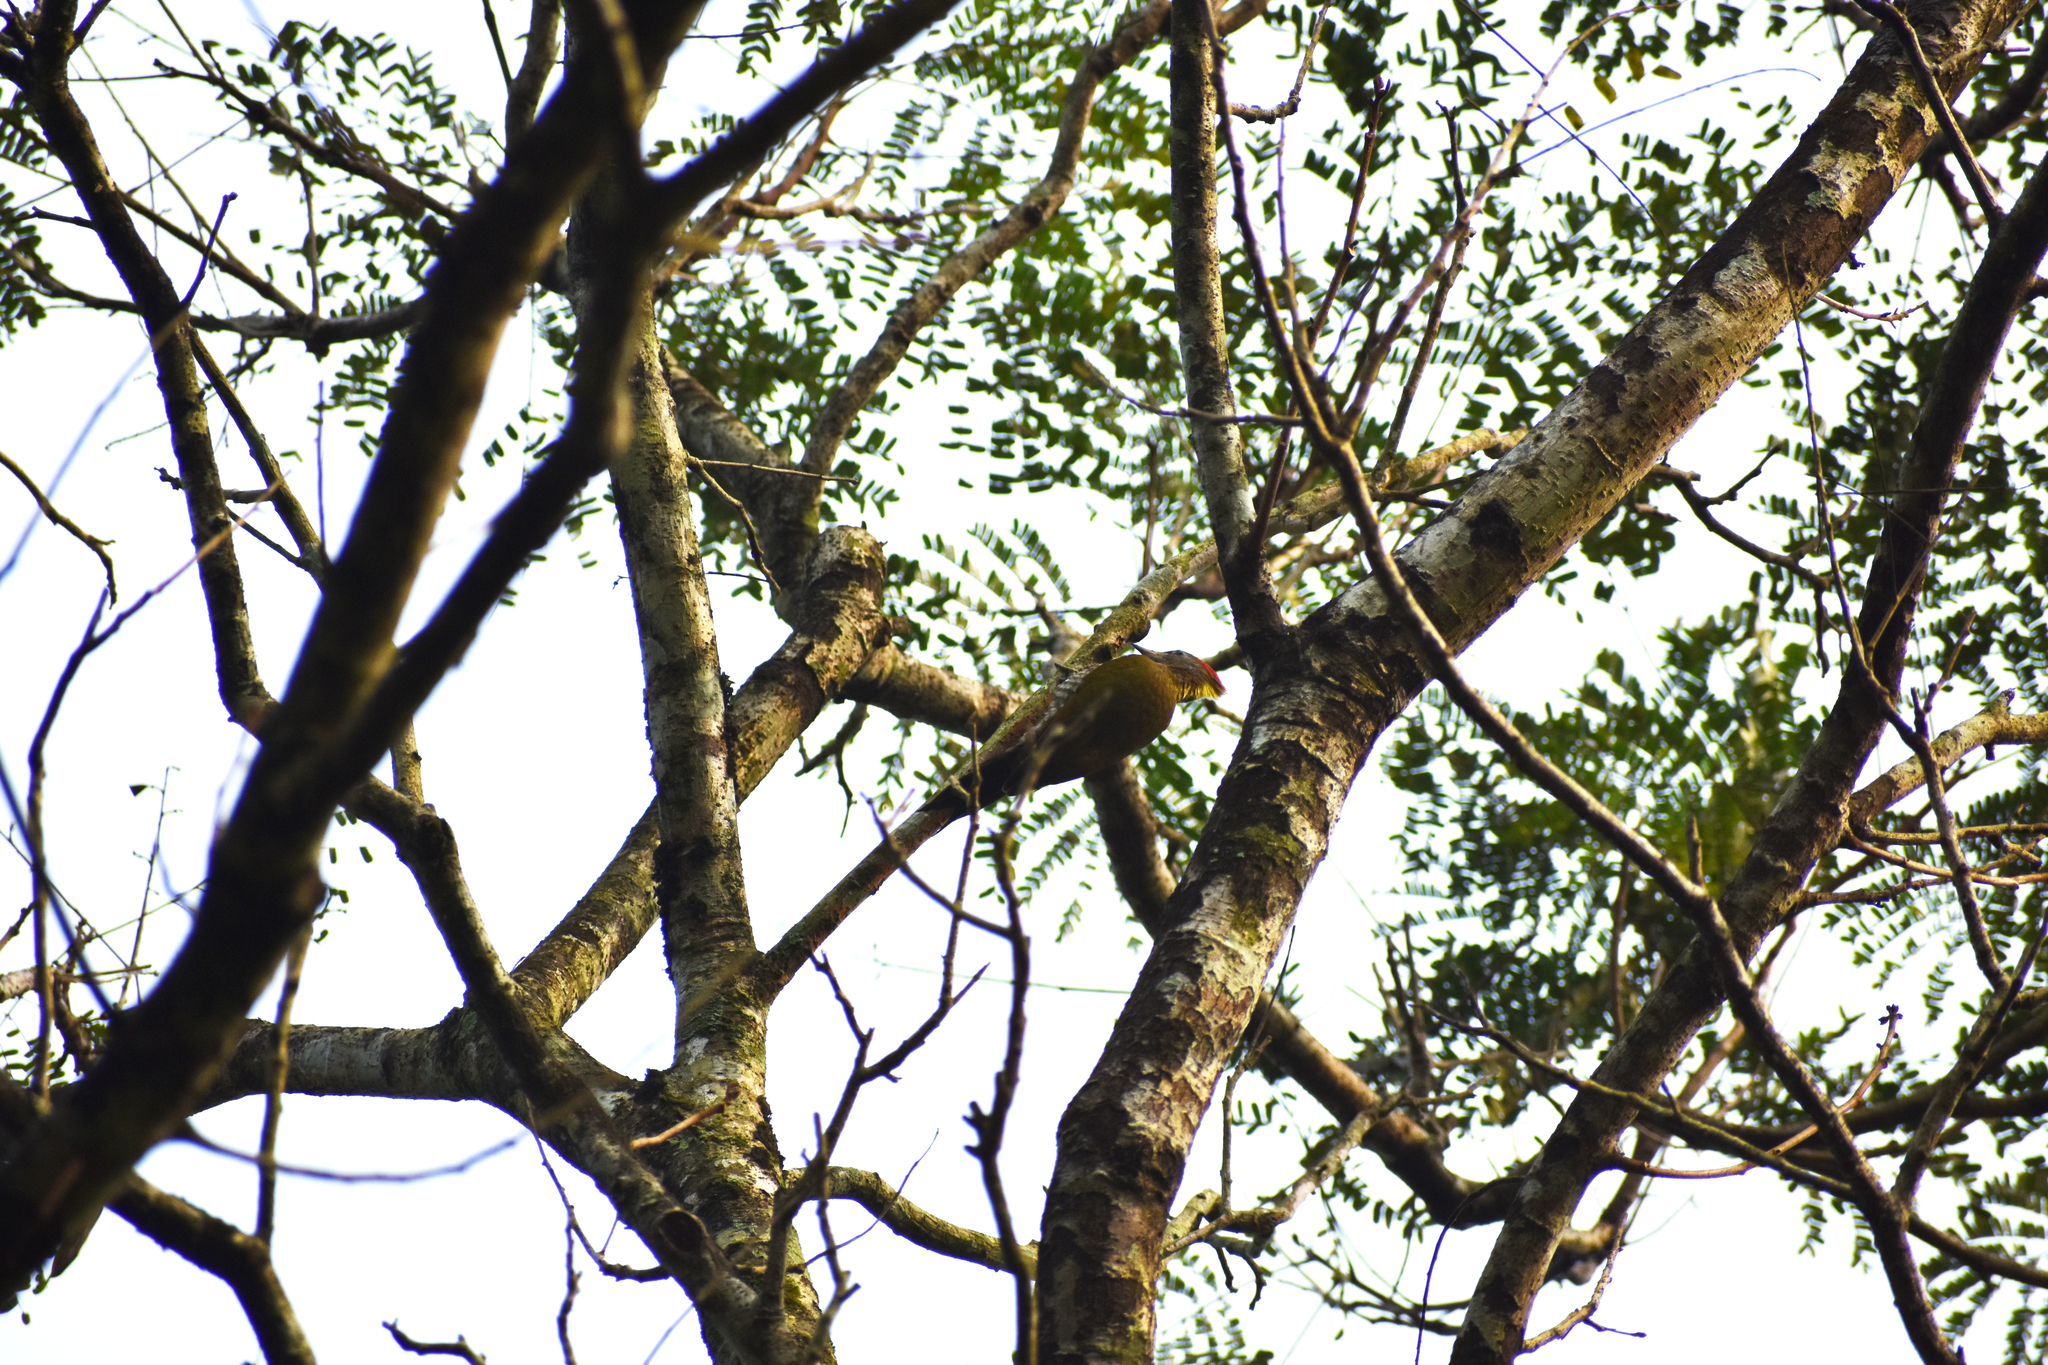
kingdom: Animalia
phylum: Chordata
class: Aves
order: Piciformes
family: Picidae
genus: Picus
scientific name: Picus chlorolophus
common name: Lesser yellownape
